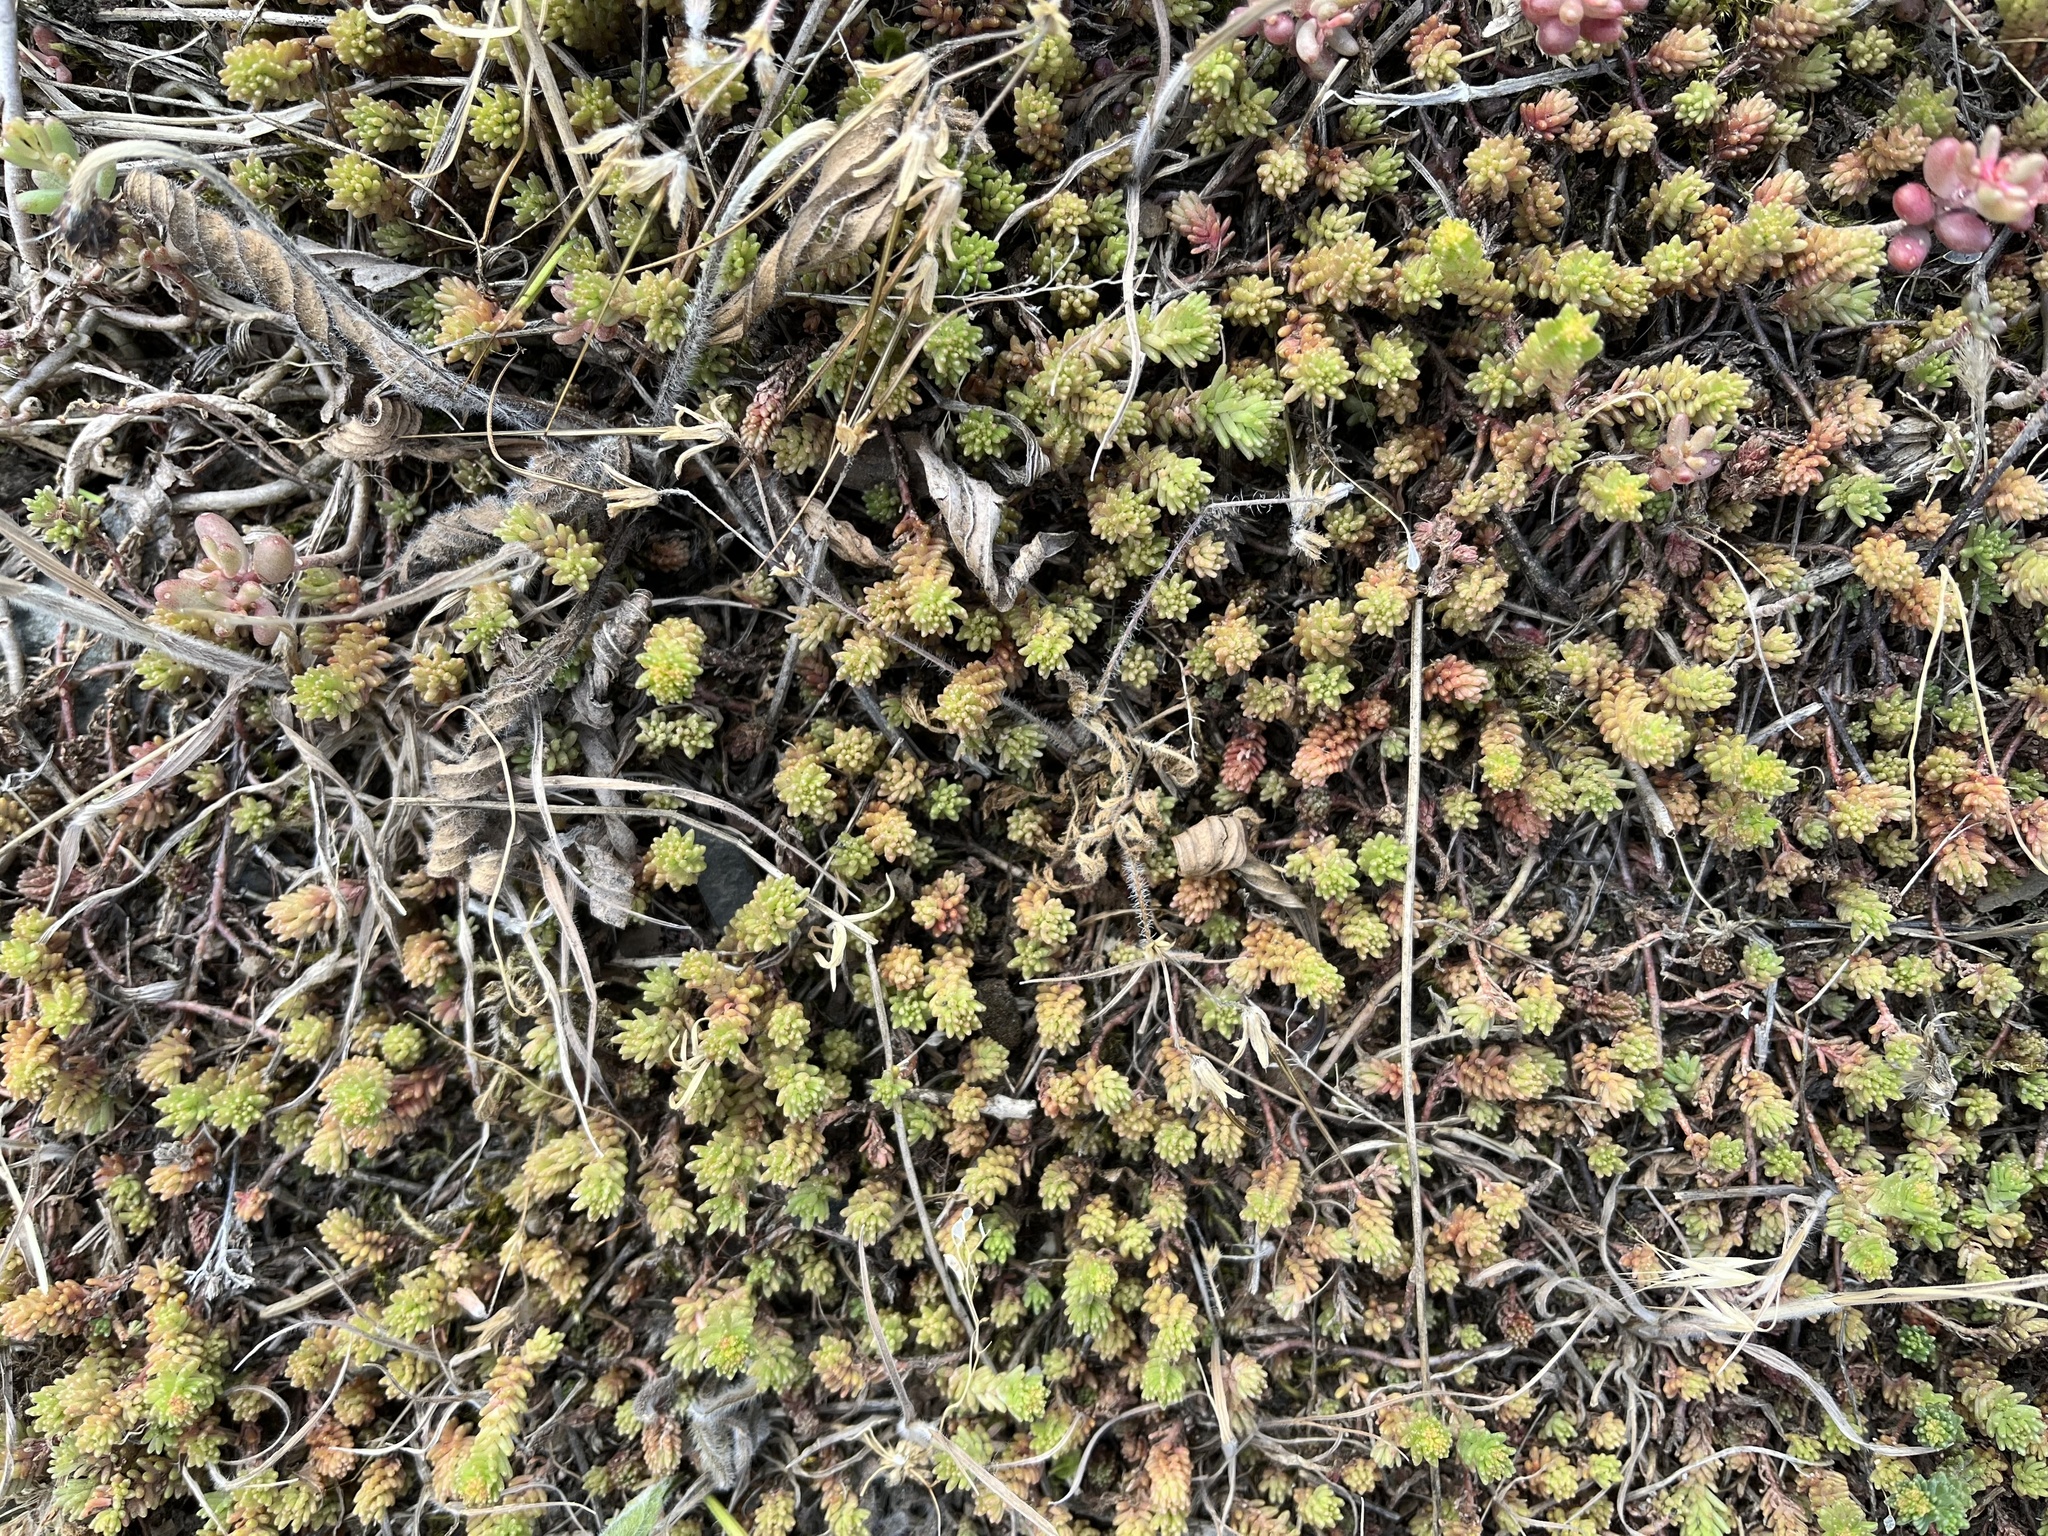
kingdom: Plantae
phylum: Tracheophyta
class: Magnoliopsida
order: Saxifragales
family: Crassulaceae
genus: Sedum
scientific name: Sedum sexangulare
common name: Tasteless stonecrop
